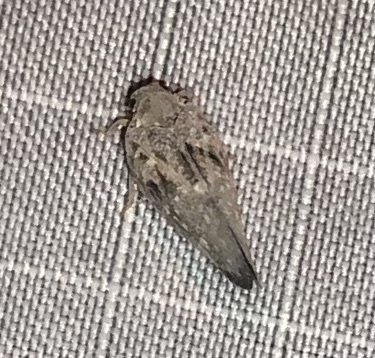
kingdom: Animalia
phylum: Arthropoda
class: Insecta
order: Hemiptera
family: Flatidae
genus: Metcalfa
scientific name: Metcalfa pruinosa
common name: Citrus flatid planthopper
